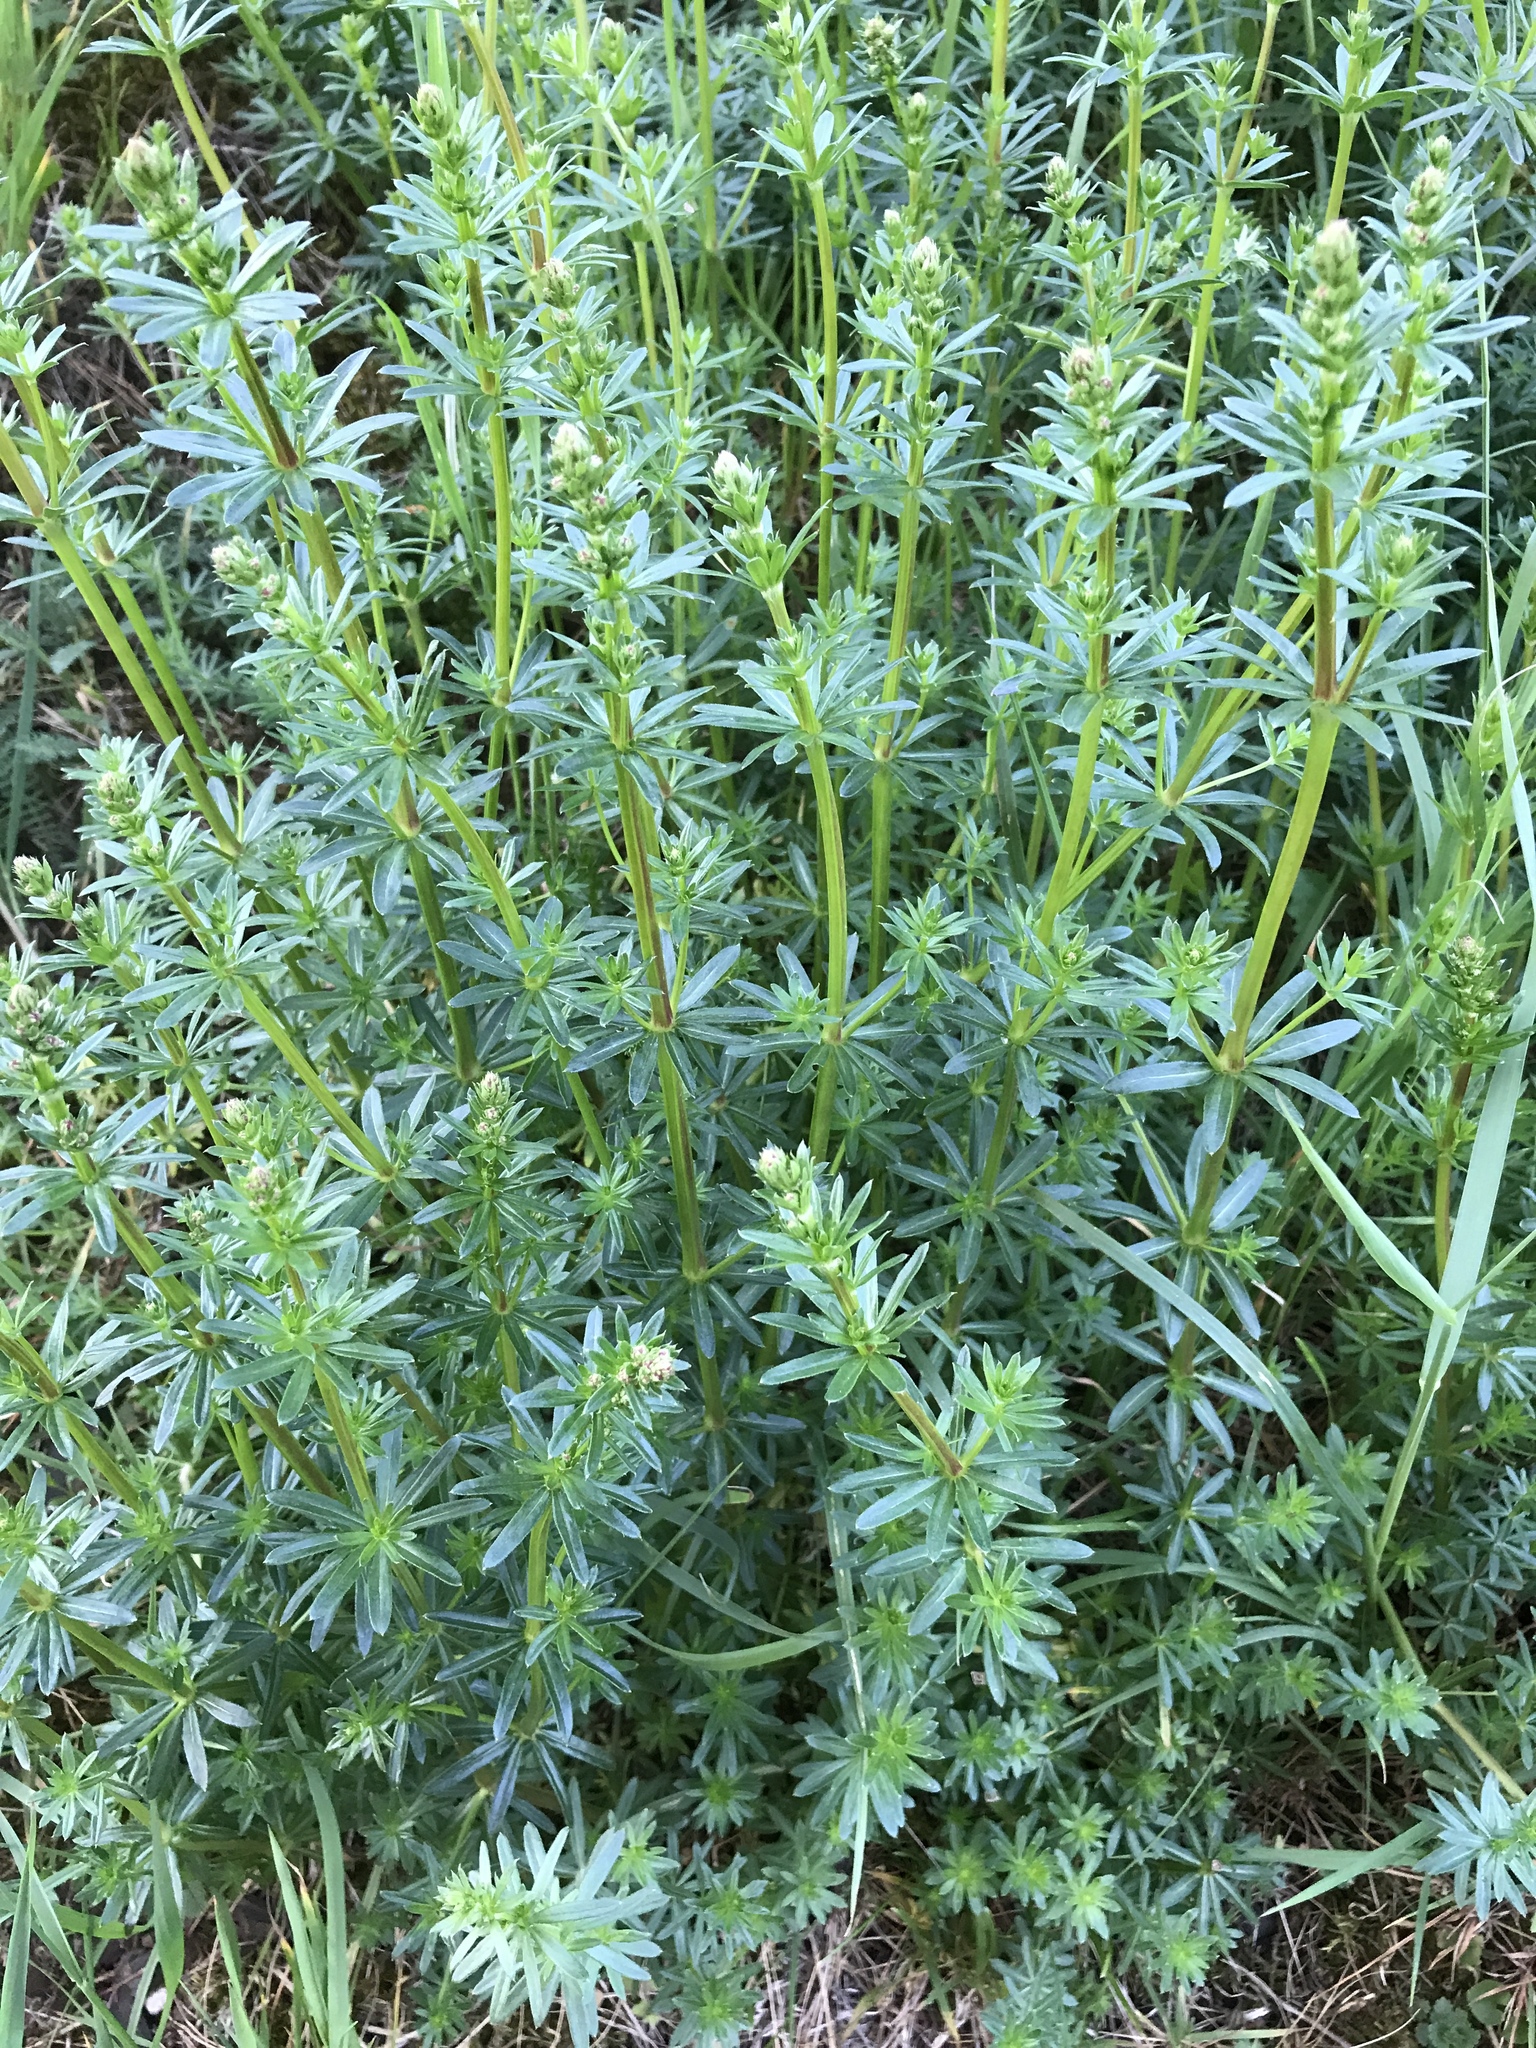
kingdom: Plantae
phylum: Tracheophyta
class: Magnoliopsida
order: Gentianales
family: Rubiaceae
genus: Galium
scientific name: Galium mollugo
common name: Hedge bedstraw
